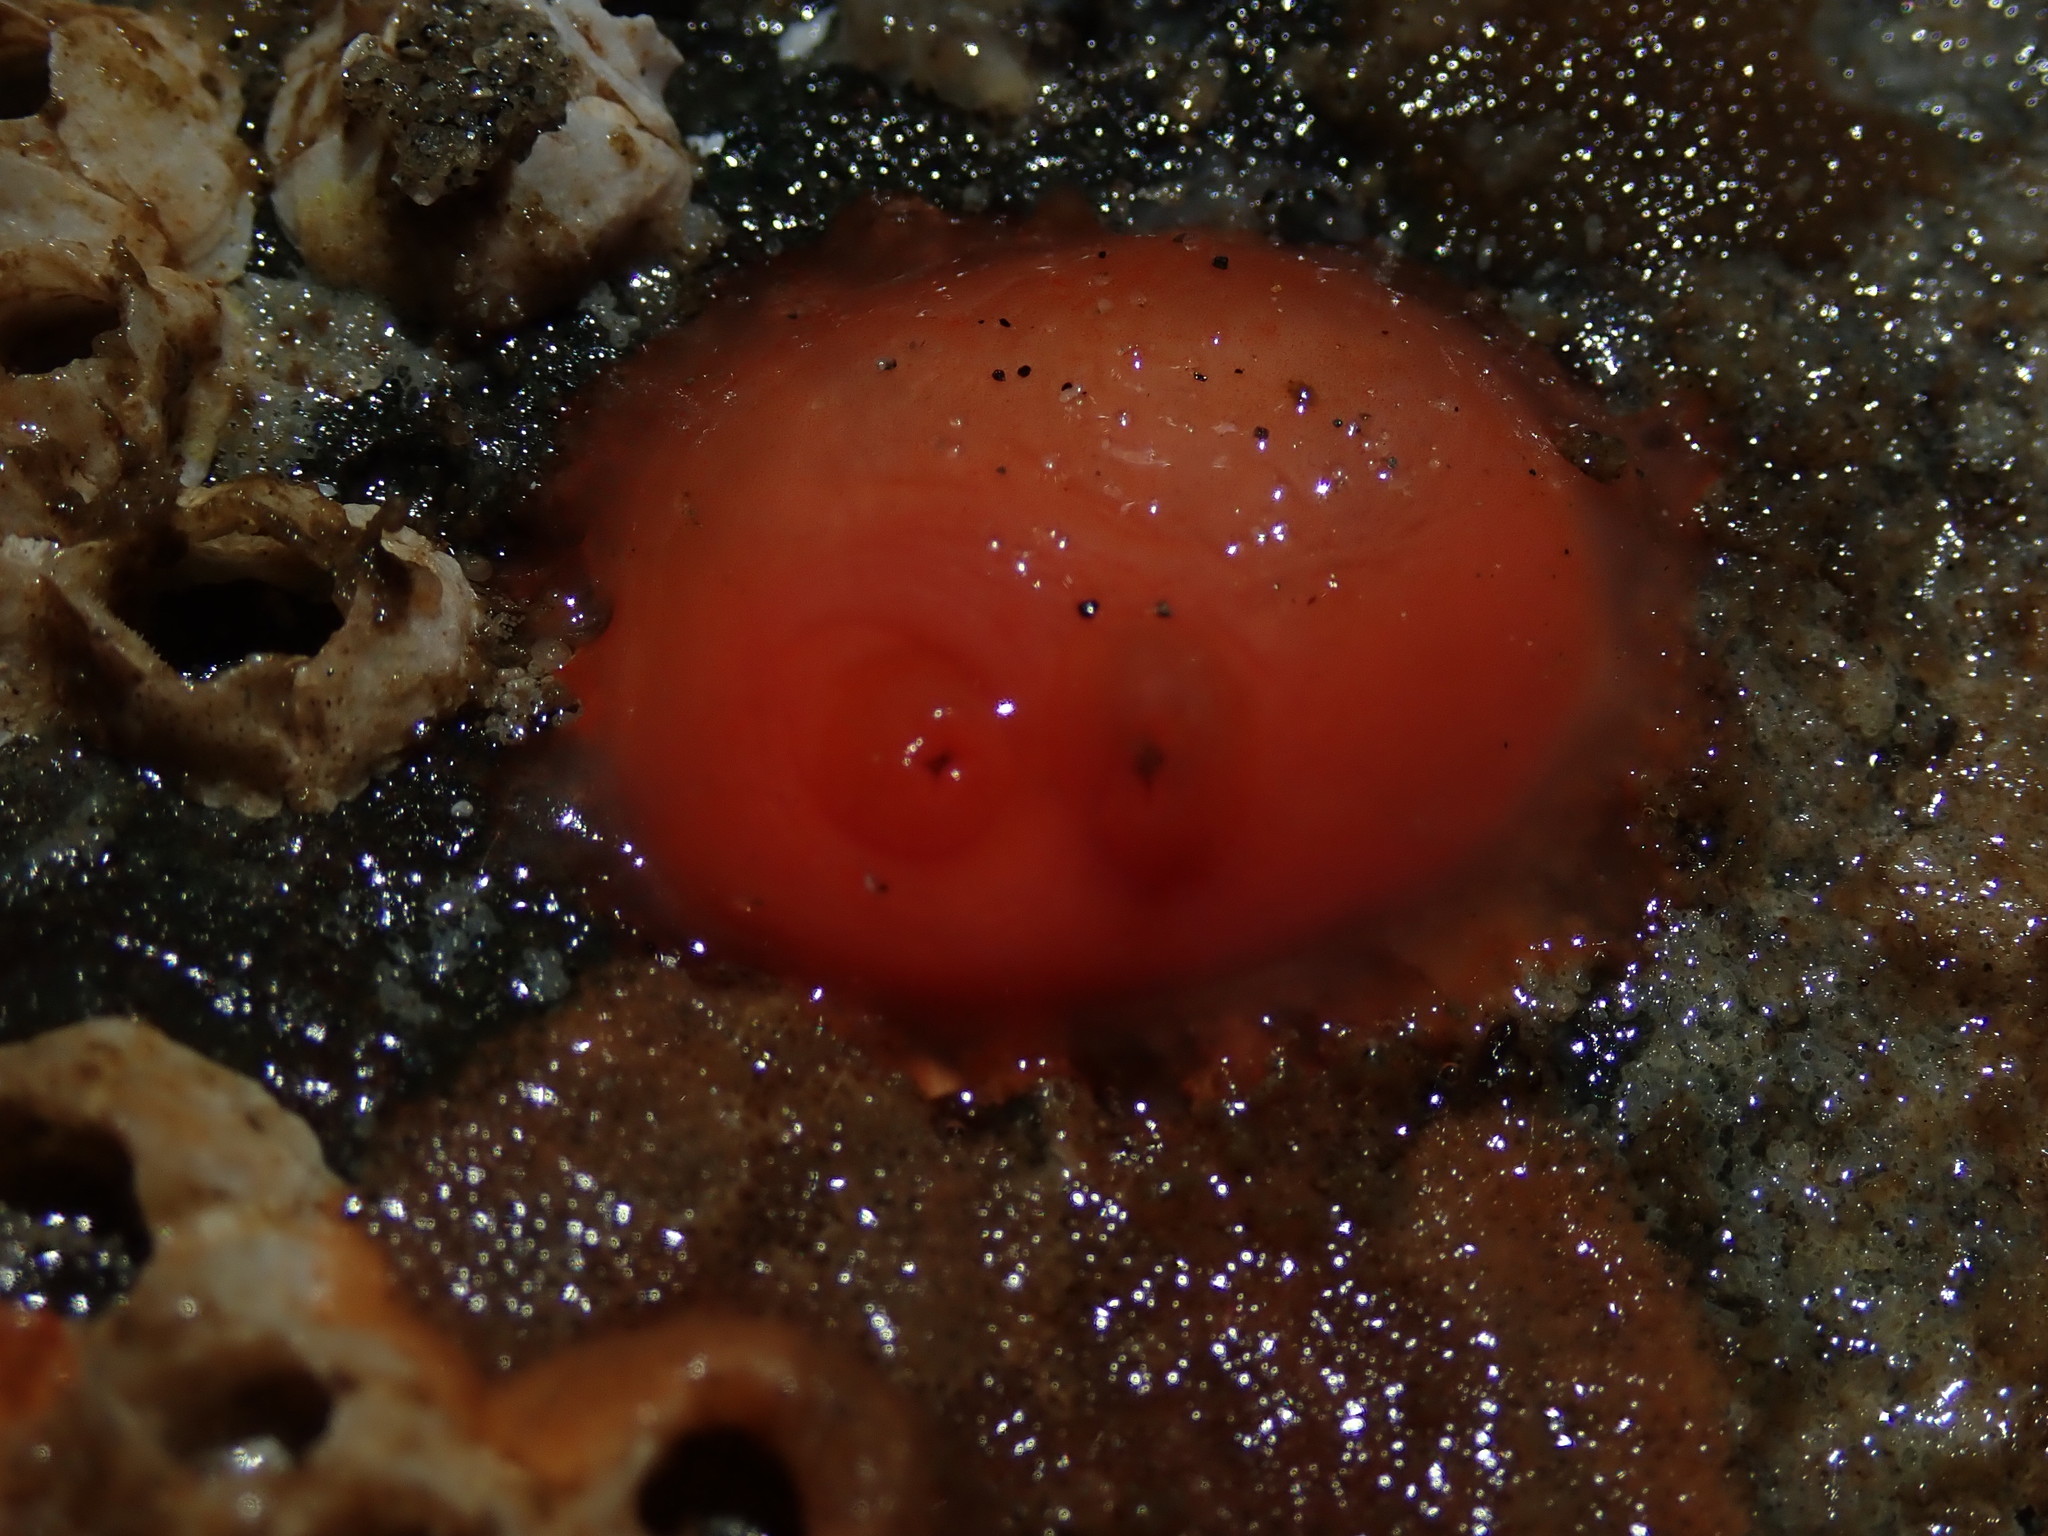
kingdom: Animalia
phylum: Chordata
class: Ascidiacea
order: Stolidobranchia
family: Styelidae
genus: Cnemidocarpa
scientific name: Cnemidocarpa finmarkiensis
